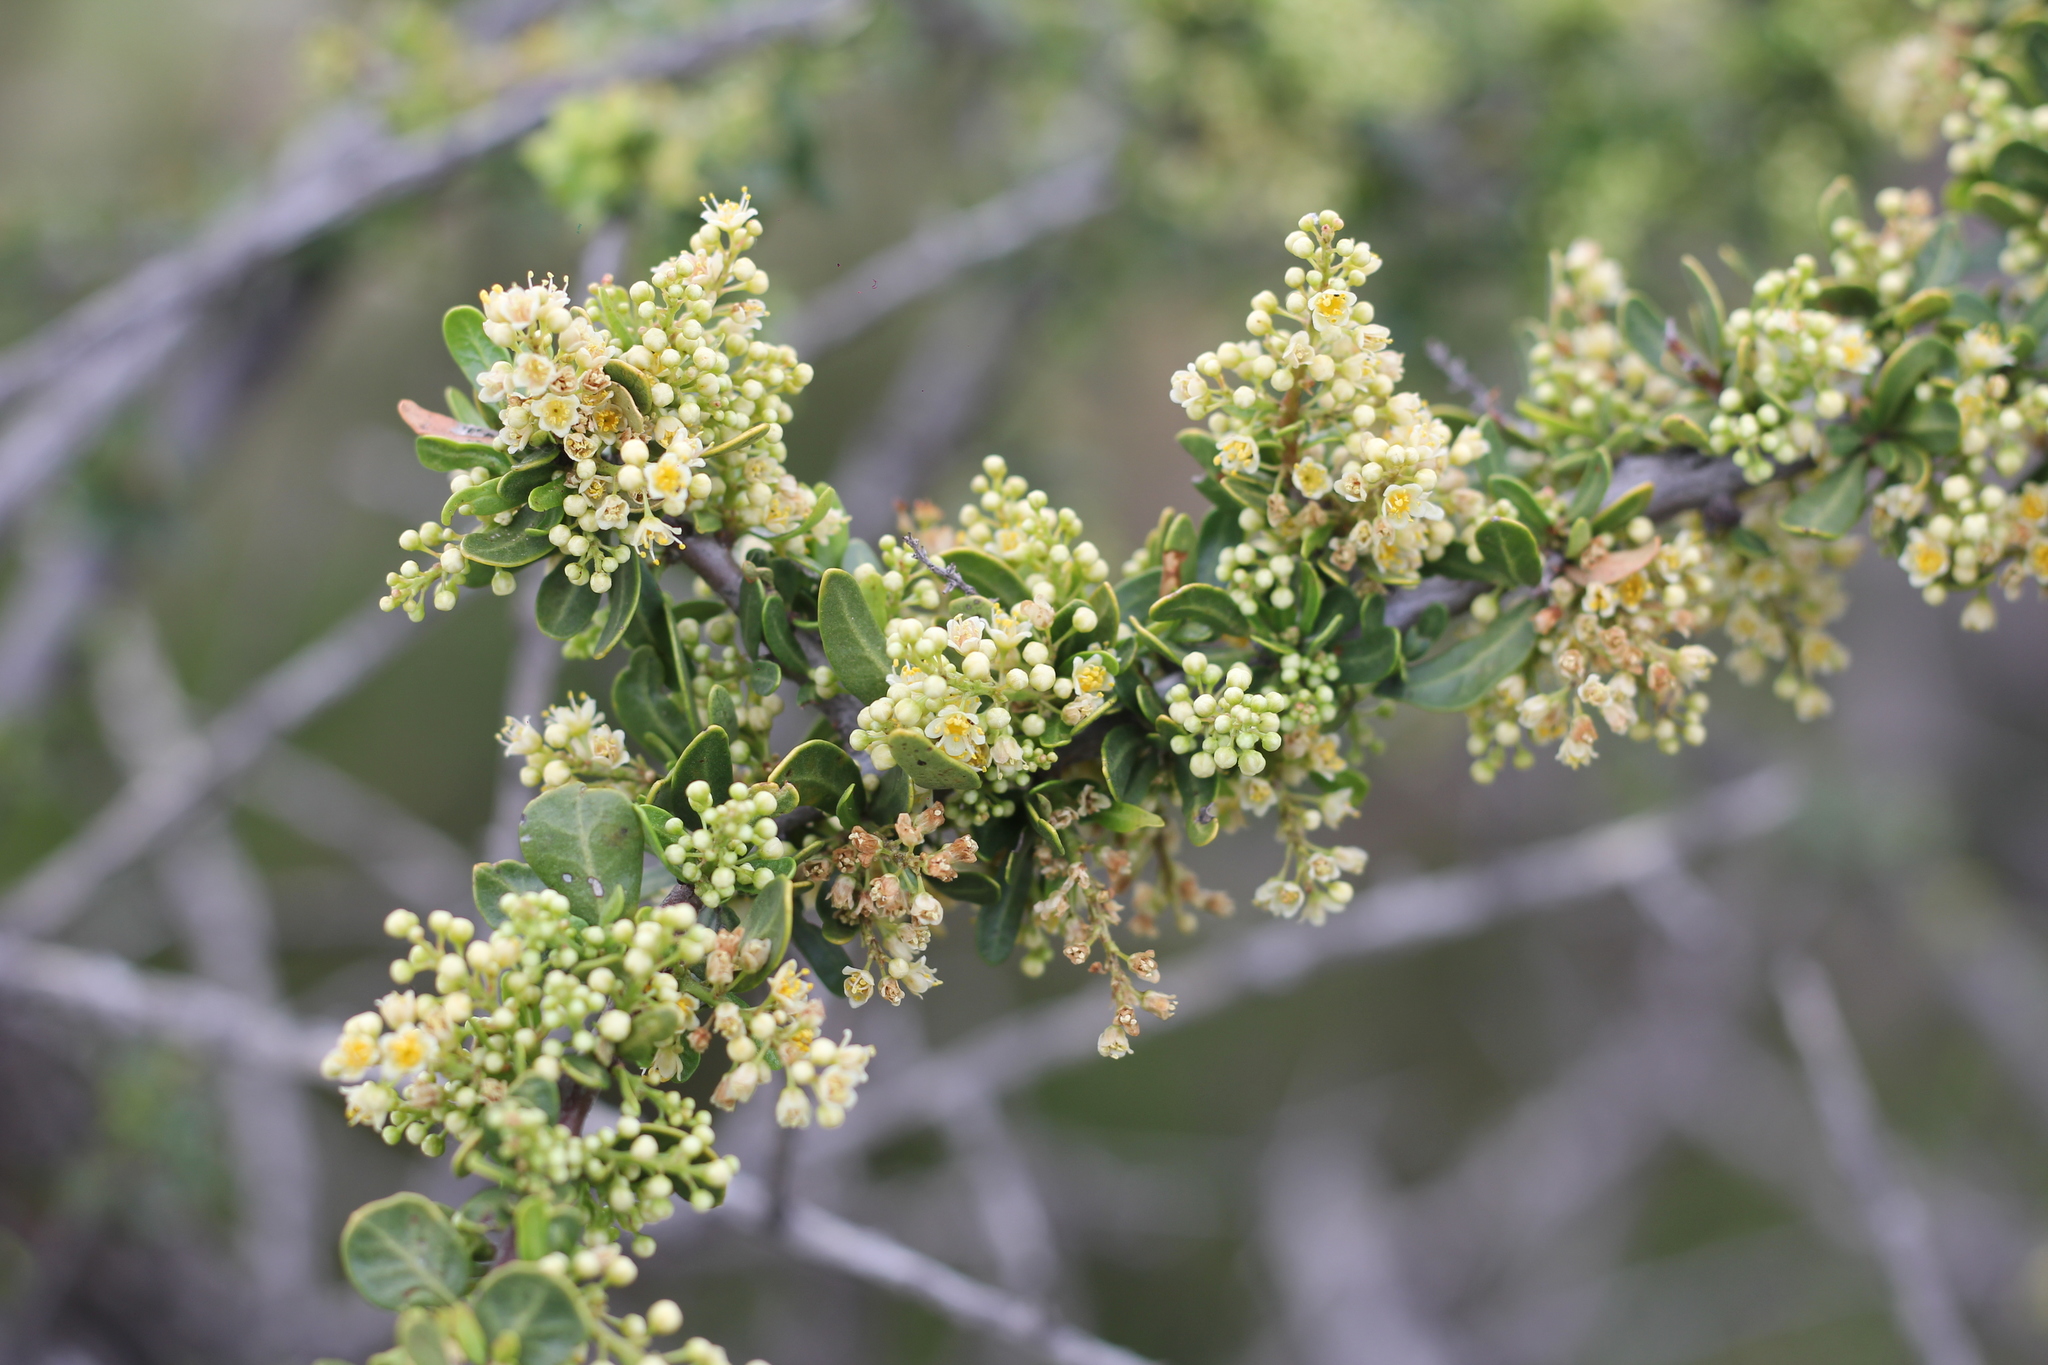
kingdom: Plantae
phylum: Tracheophyta
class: Magnoliopsida
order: Sapindales
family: Anacardiaceae
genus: Schinus
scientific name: Schinus fasciculata
